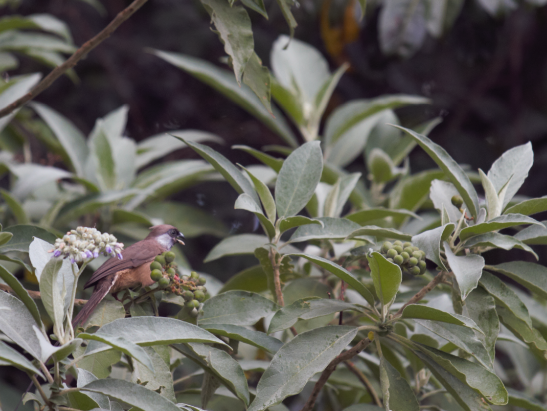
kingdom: Animalia
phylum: Chordata
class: Aves
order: Coliiformes
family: Coliidae
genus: Colius
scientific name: Colius striatus
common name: Speckled mousebird
